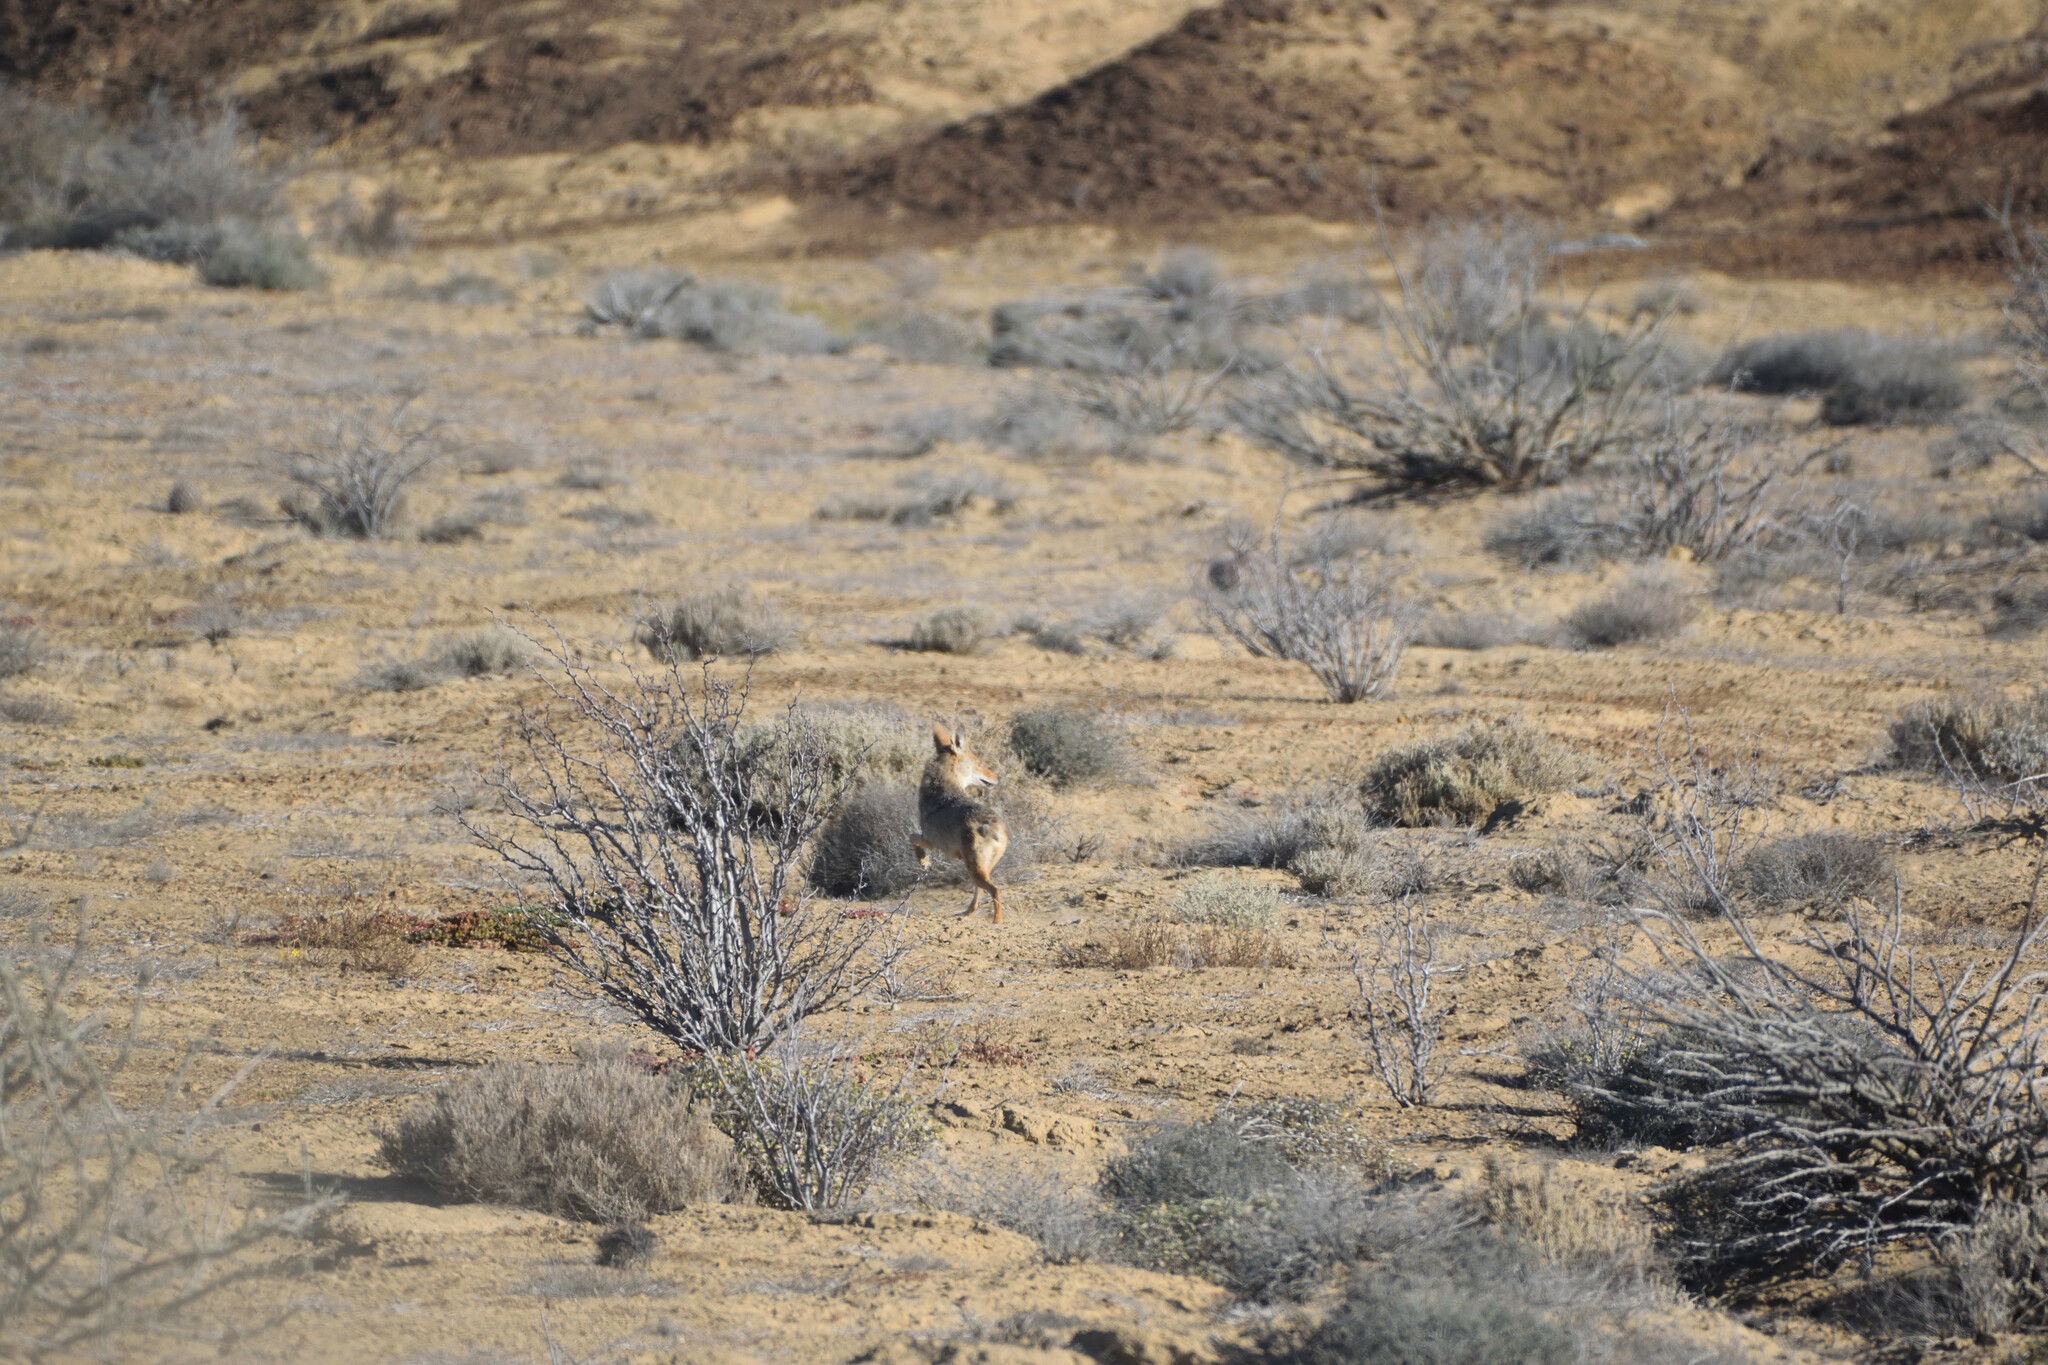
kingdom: Animalia
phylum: Chordata
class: Mammalia
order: Carnivora
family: Canidae
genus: Canis
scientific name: Canis latrans
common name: Coyote
